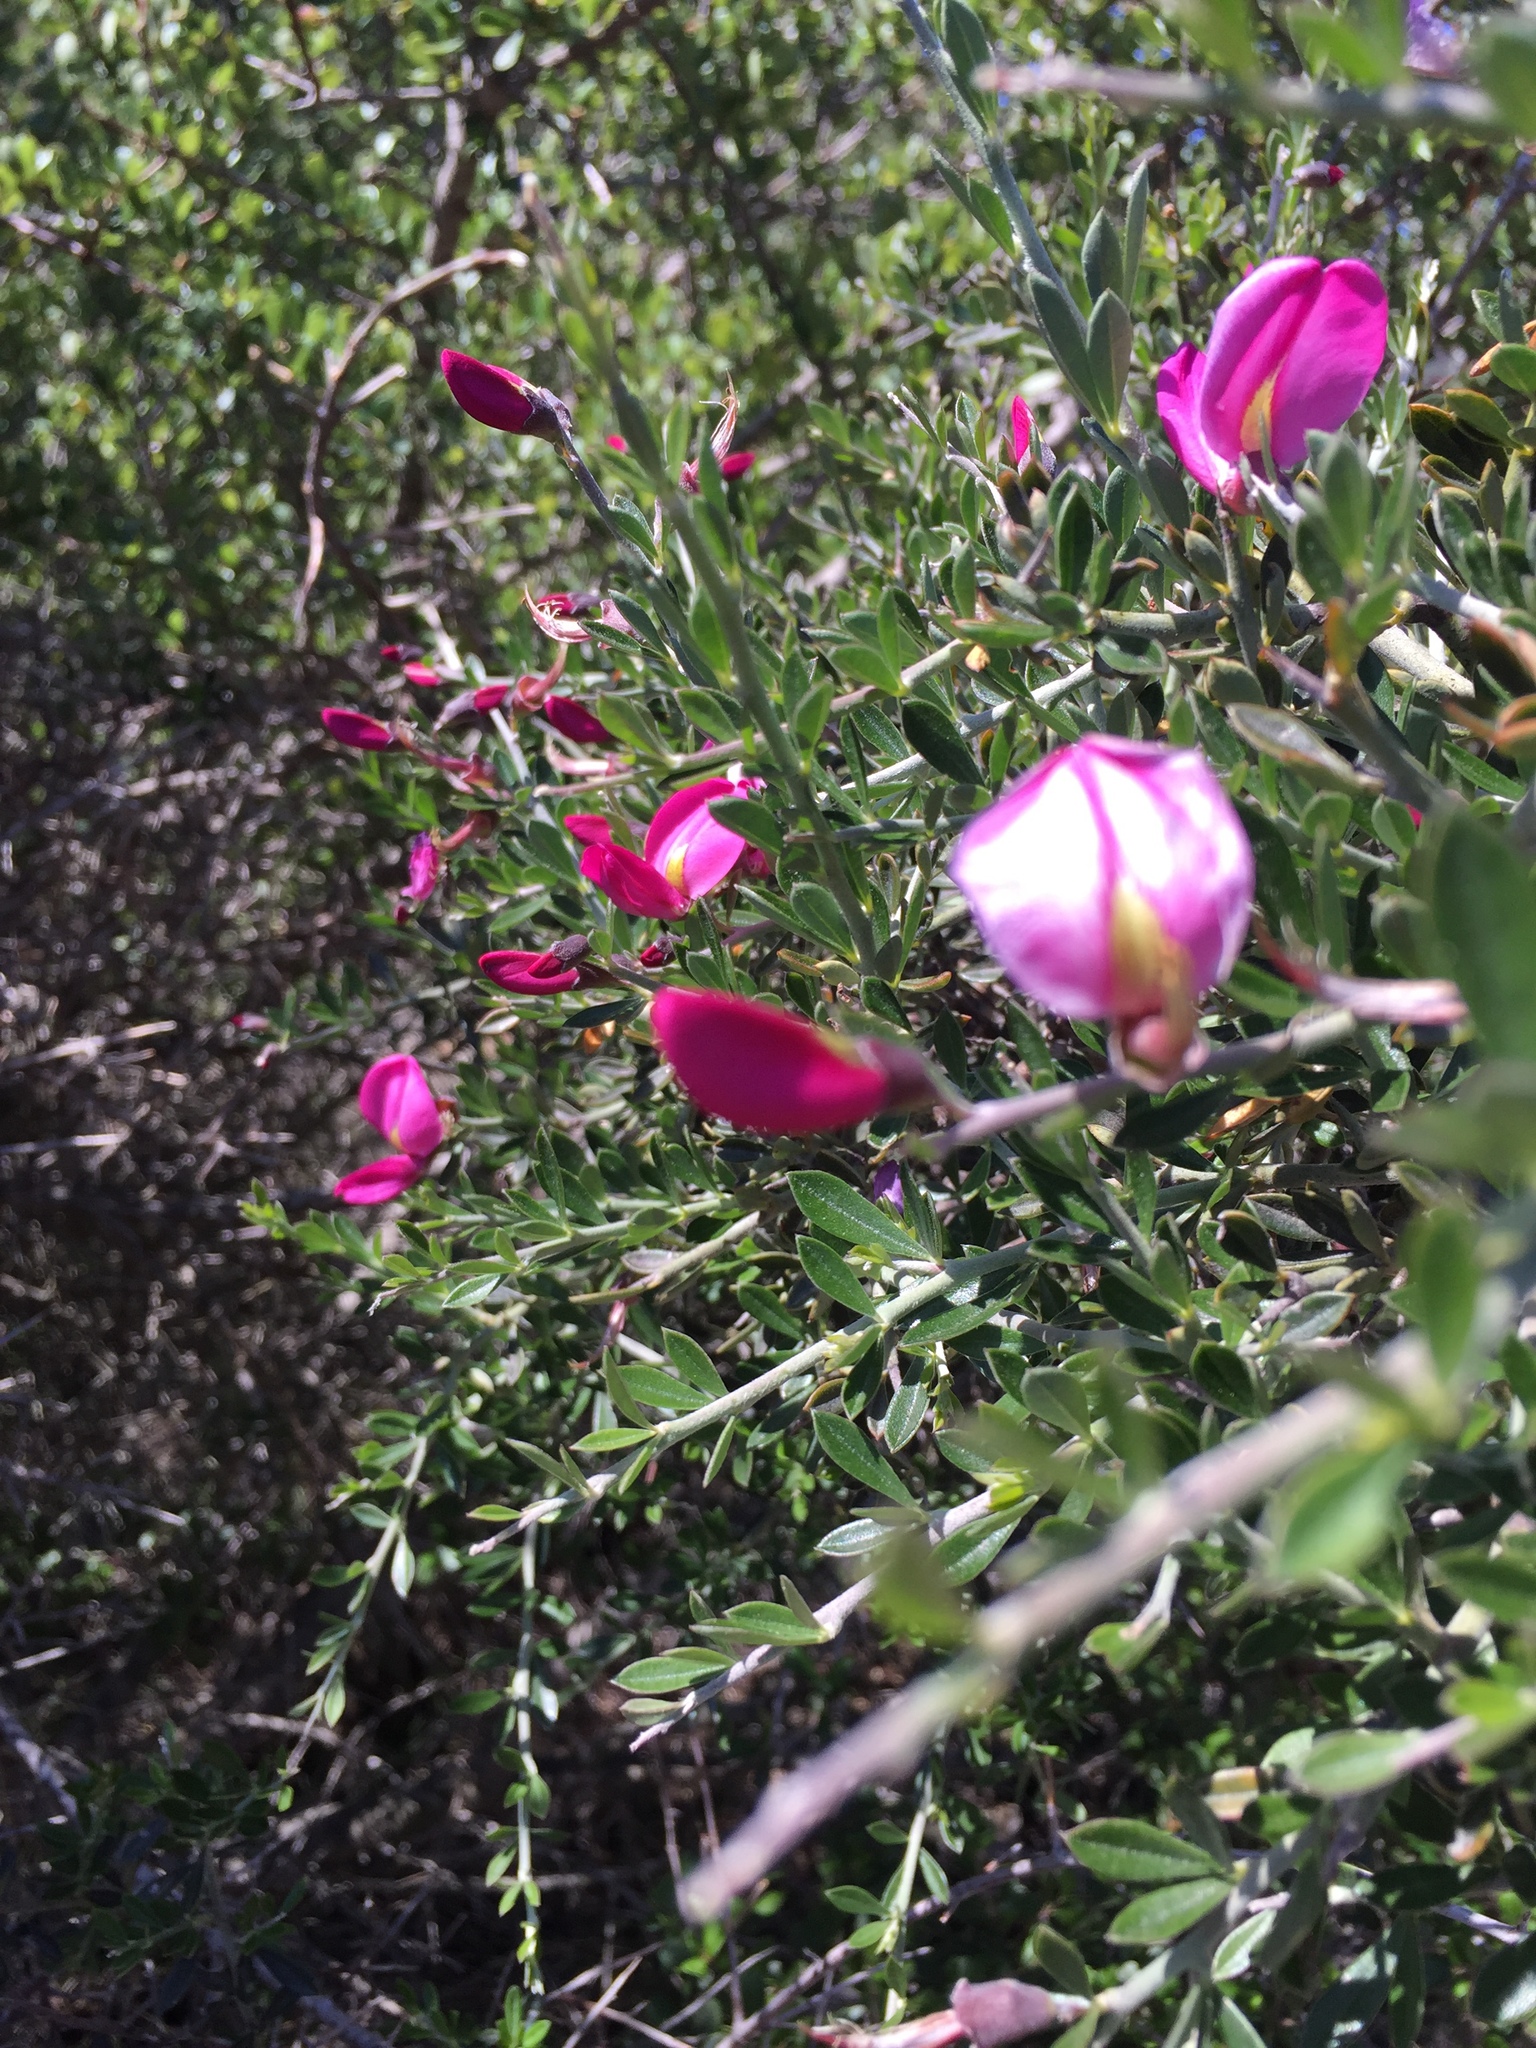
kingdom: Plantae
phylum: Tracheophyta
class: Magnoliopsida
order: Fabales
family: Fabaceae
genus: Pickeringia
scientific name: Pickeringia montana
